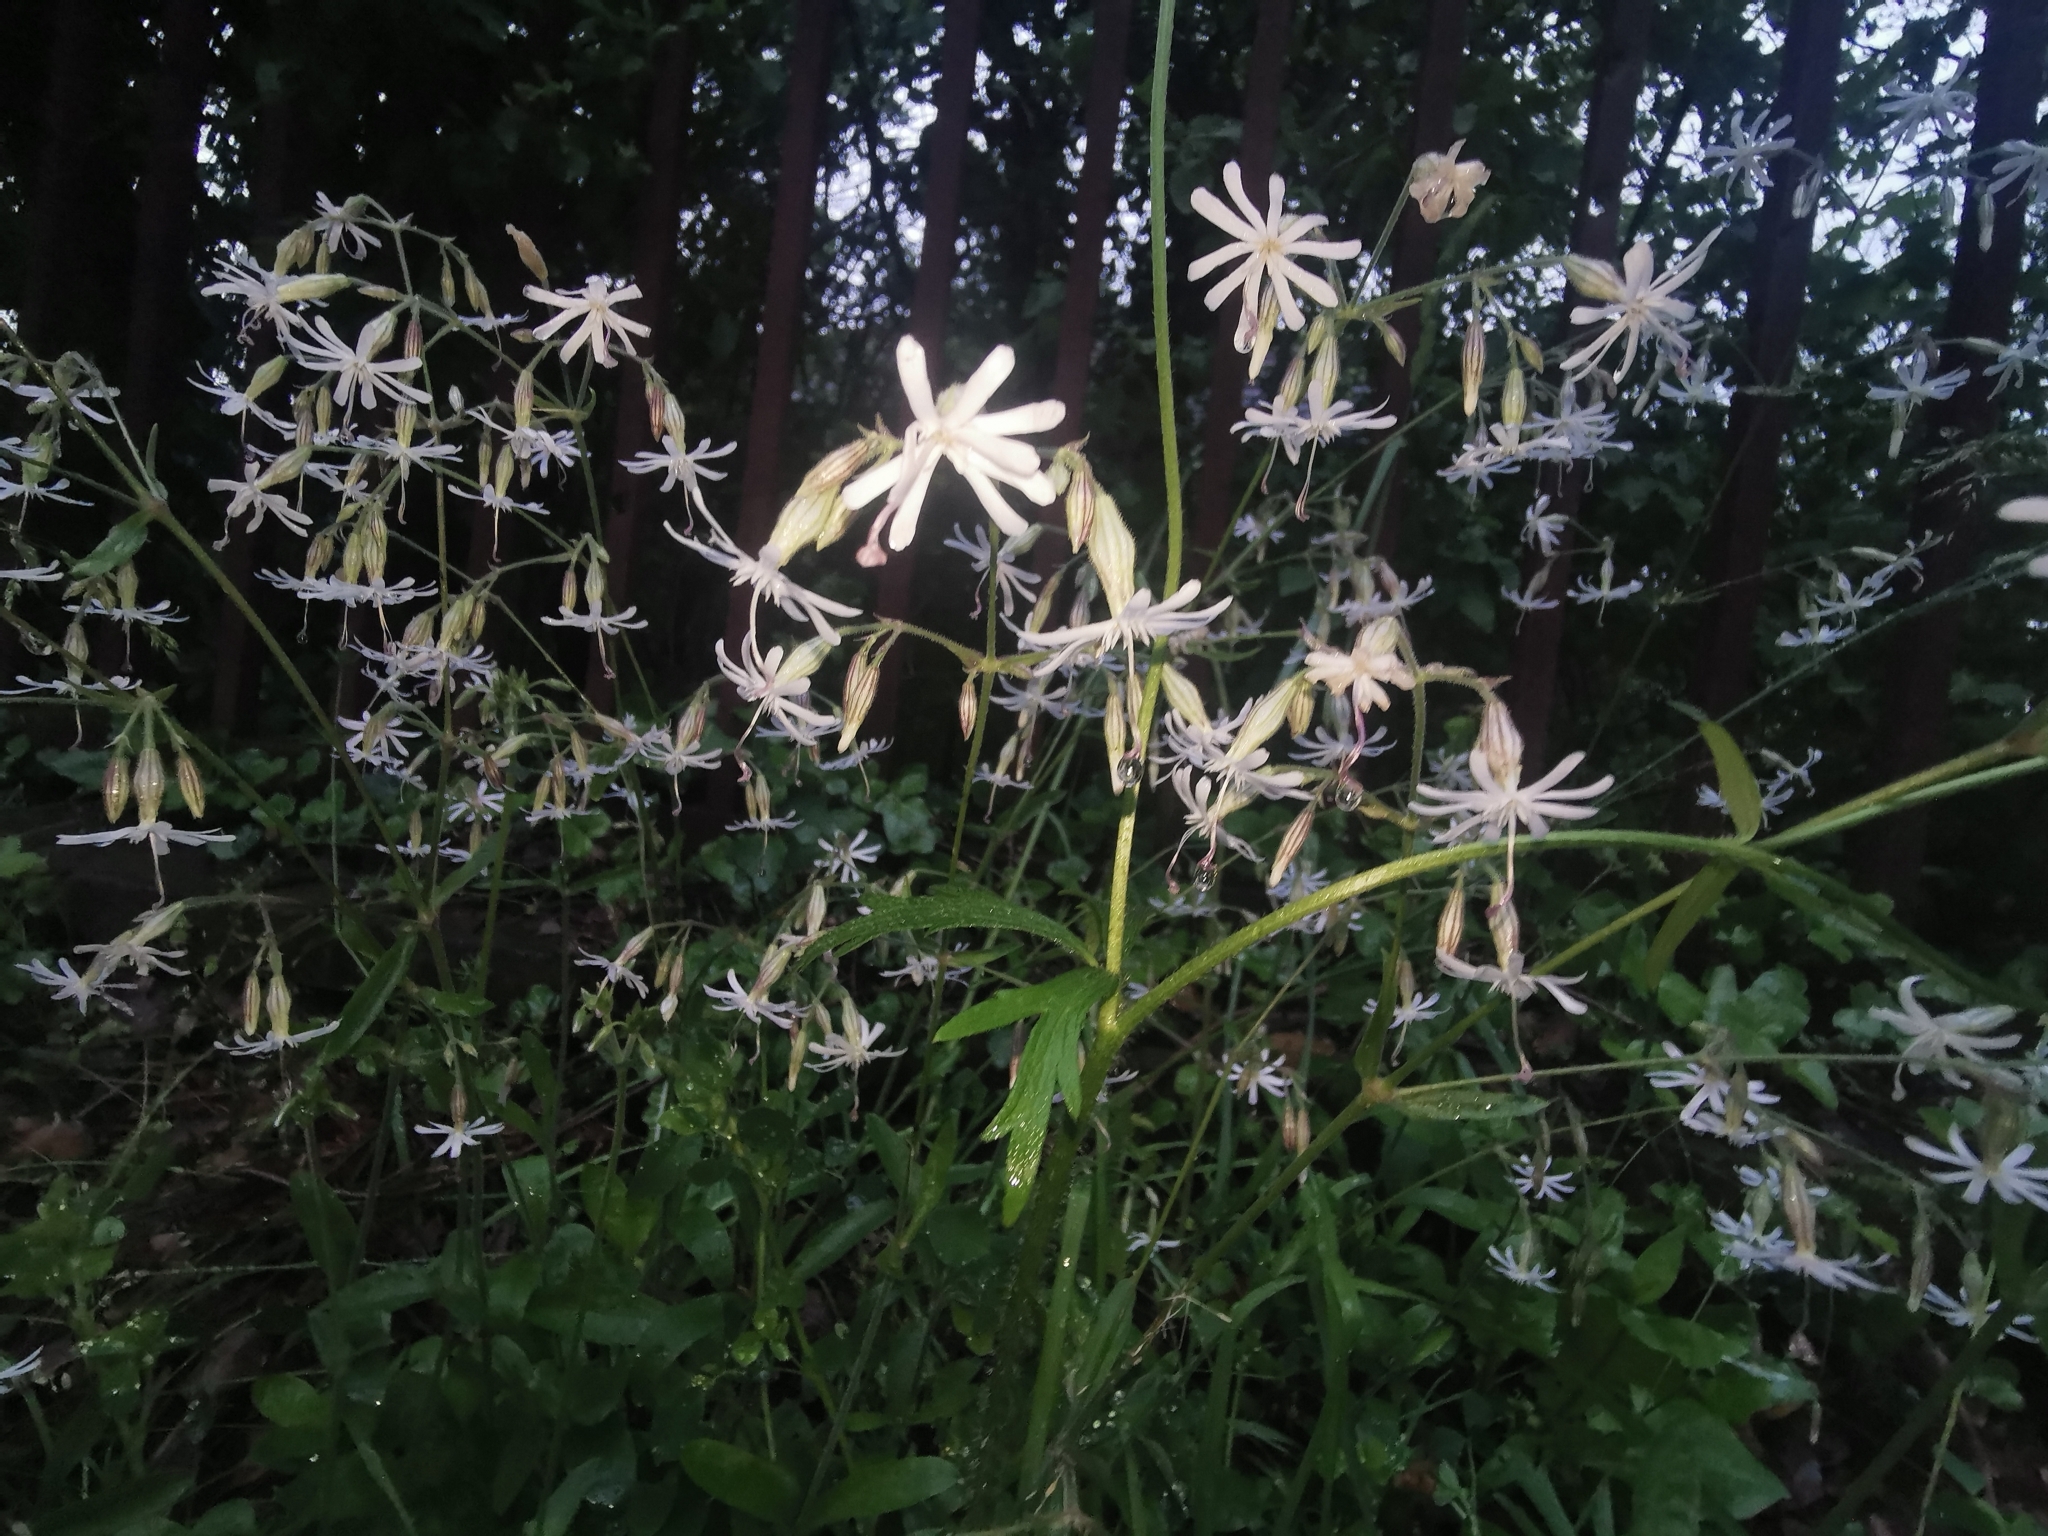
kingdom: Plantae
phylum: Tracheophyta
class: Magnoliopsida
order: Caryophyllales
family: Caryophyllaceae
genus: Silene
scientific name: Silene nutans
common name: Nottingham catchfly
